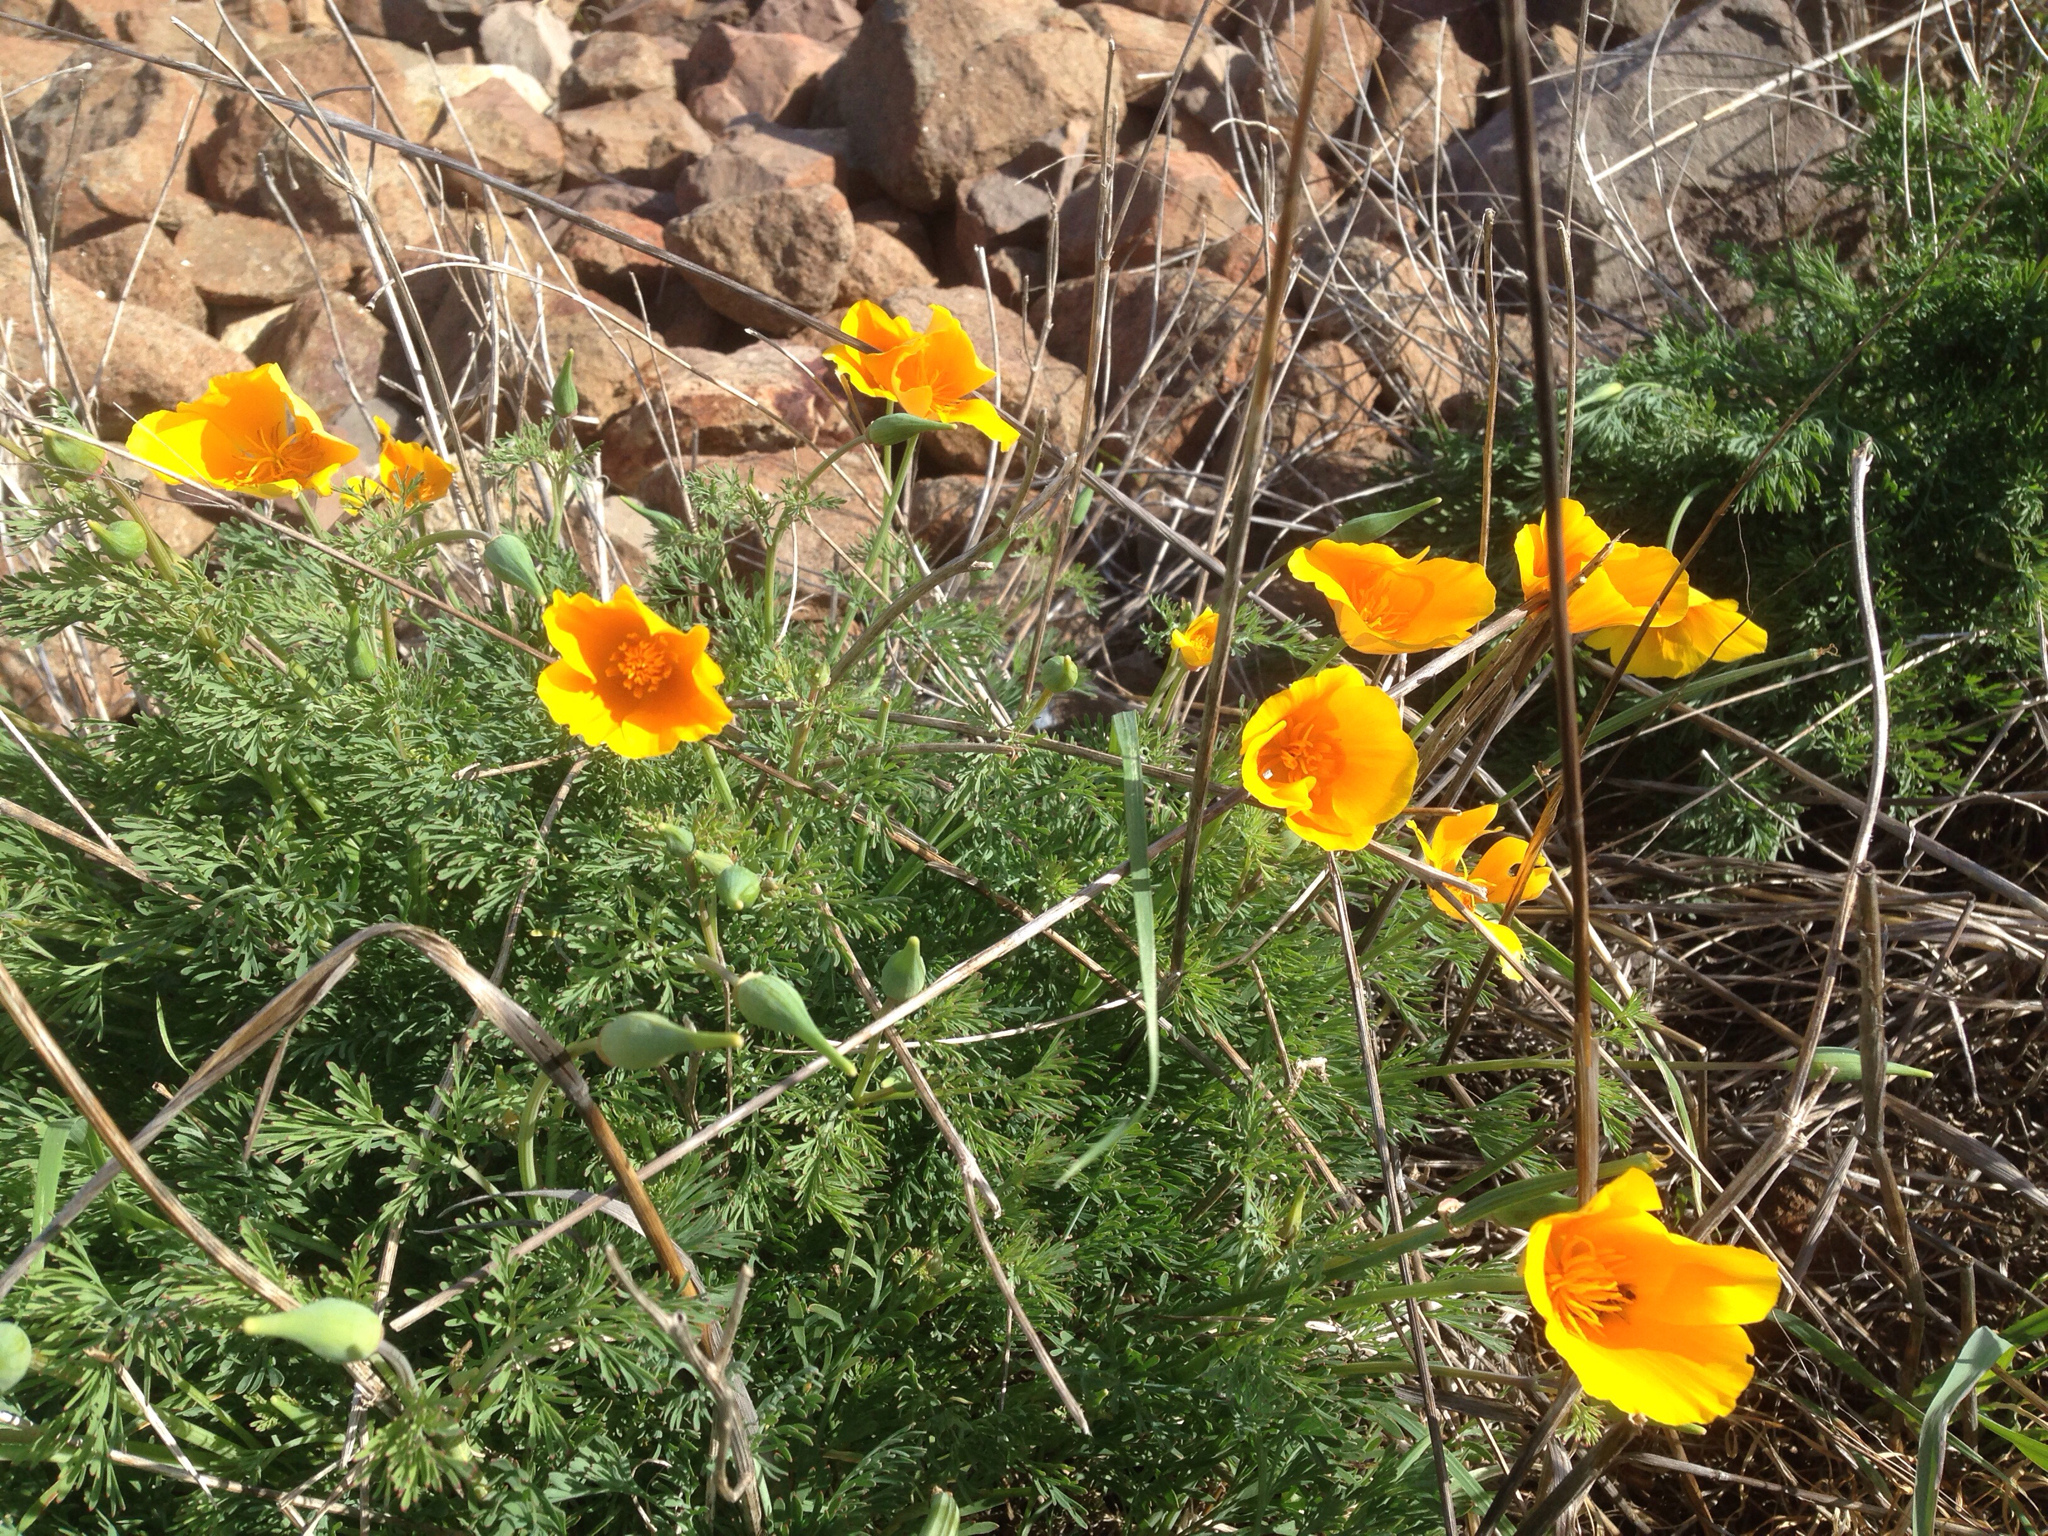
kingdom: Plantae
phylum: Tracheophyta
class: Magnoliopsida
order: Ranunculales
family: Papaveraceae
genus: Eschscholzia
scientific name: Eschscholzia californica
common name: California poppy
